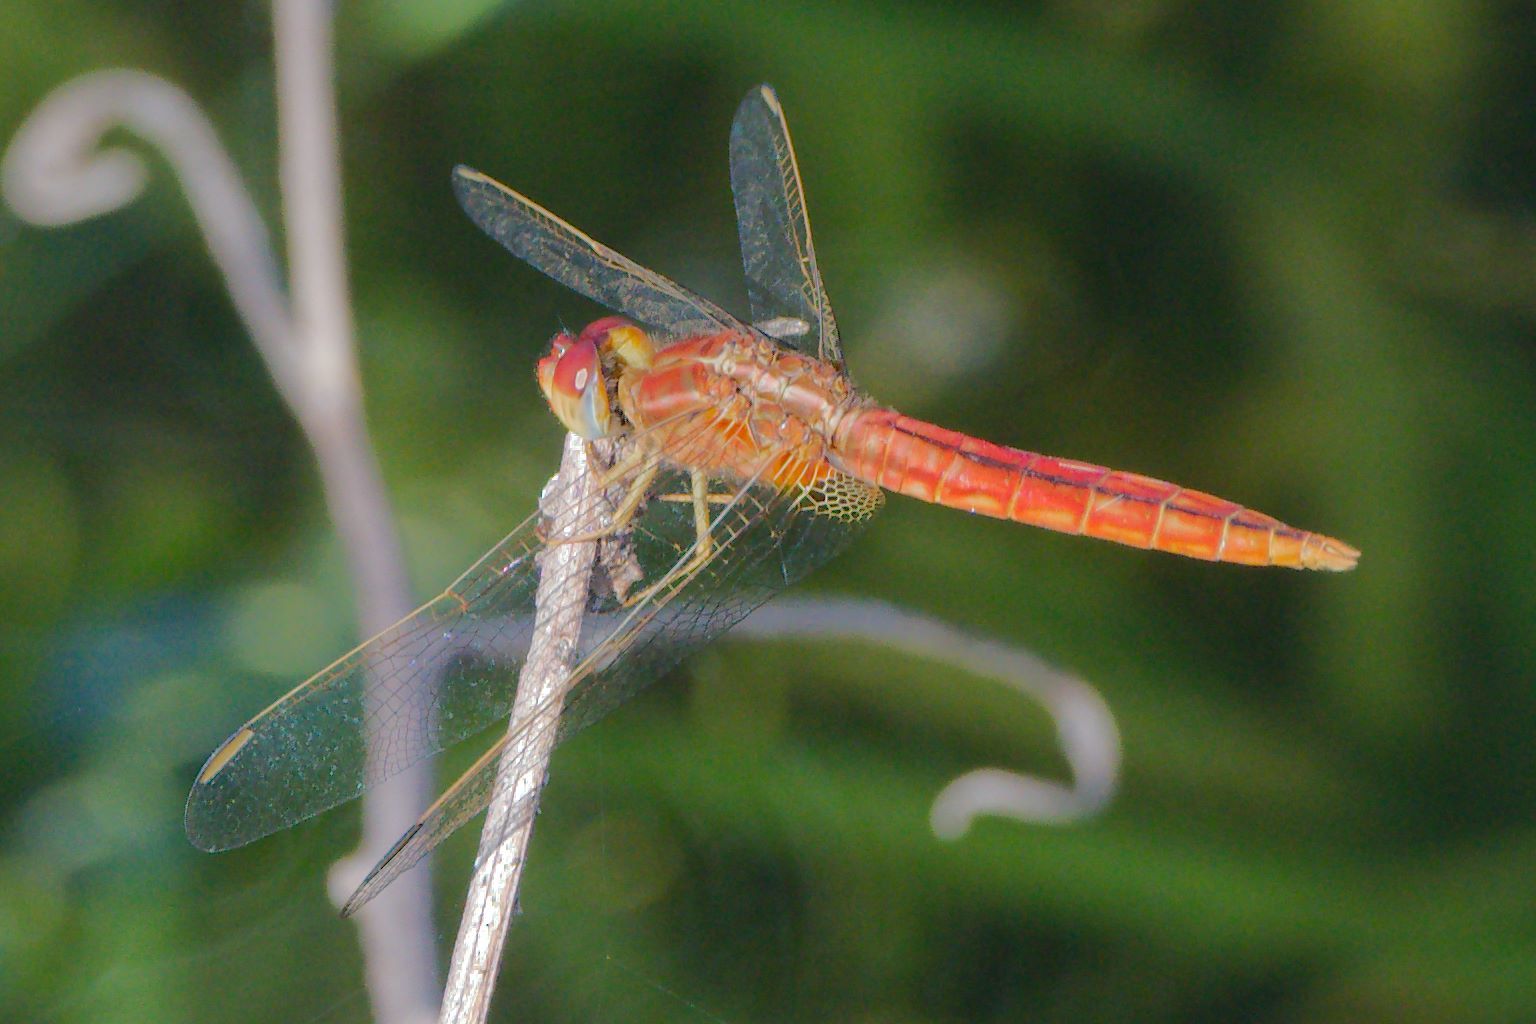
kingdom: Animalia
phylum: Arthropoda
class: Insecta
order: Odonata
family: Libellulidae
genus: Crocothemis
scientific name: Crocothemis servilia
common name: Scarlet skimmer
